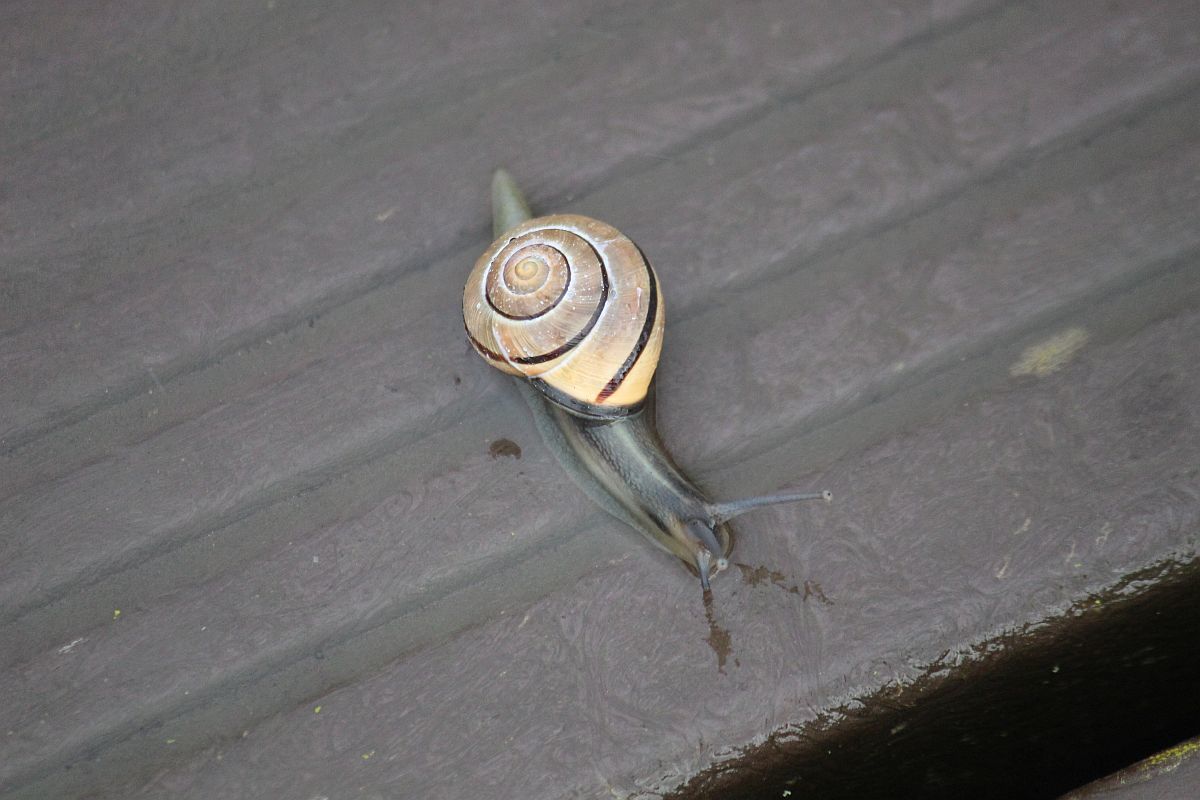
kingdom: Animalia
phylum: Mollusca
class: Gastropoda
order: Stylommatophora
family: Helicidae
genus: Cepaea
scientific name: Cepaea nemoralis
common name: Grovesnail
